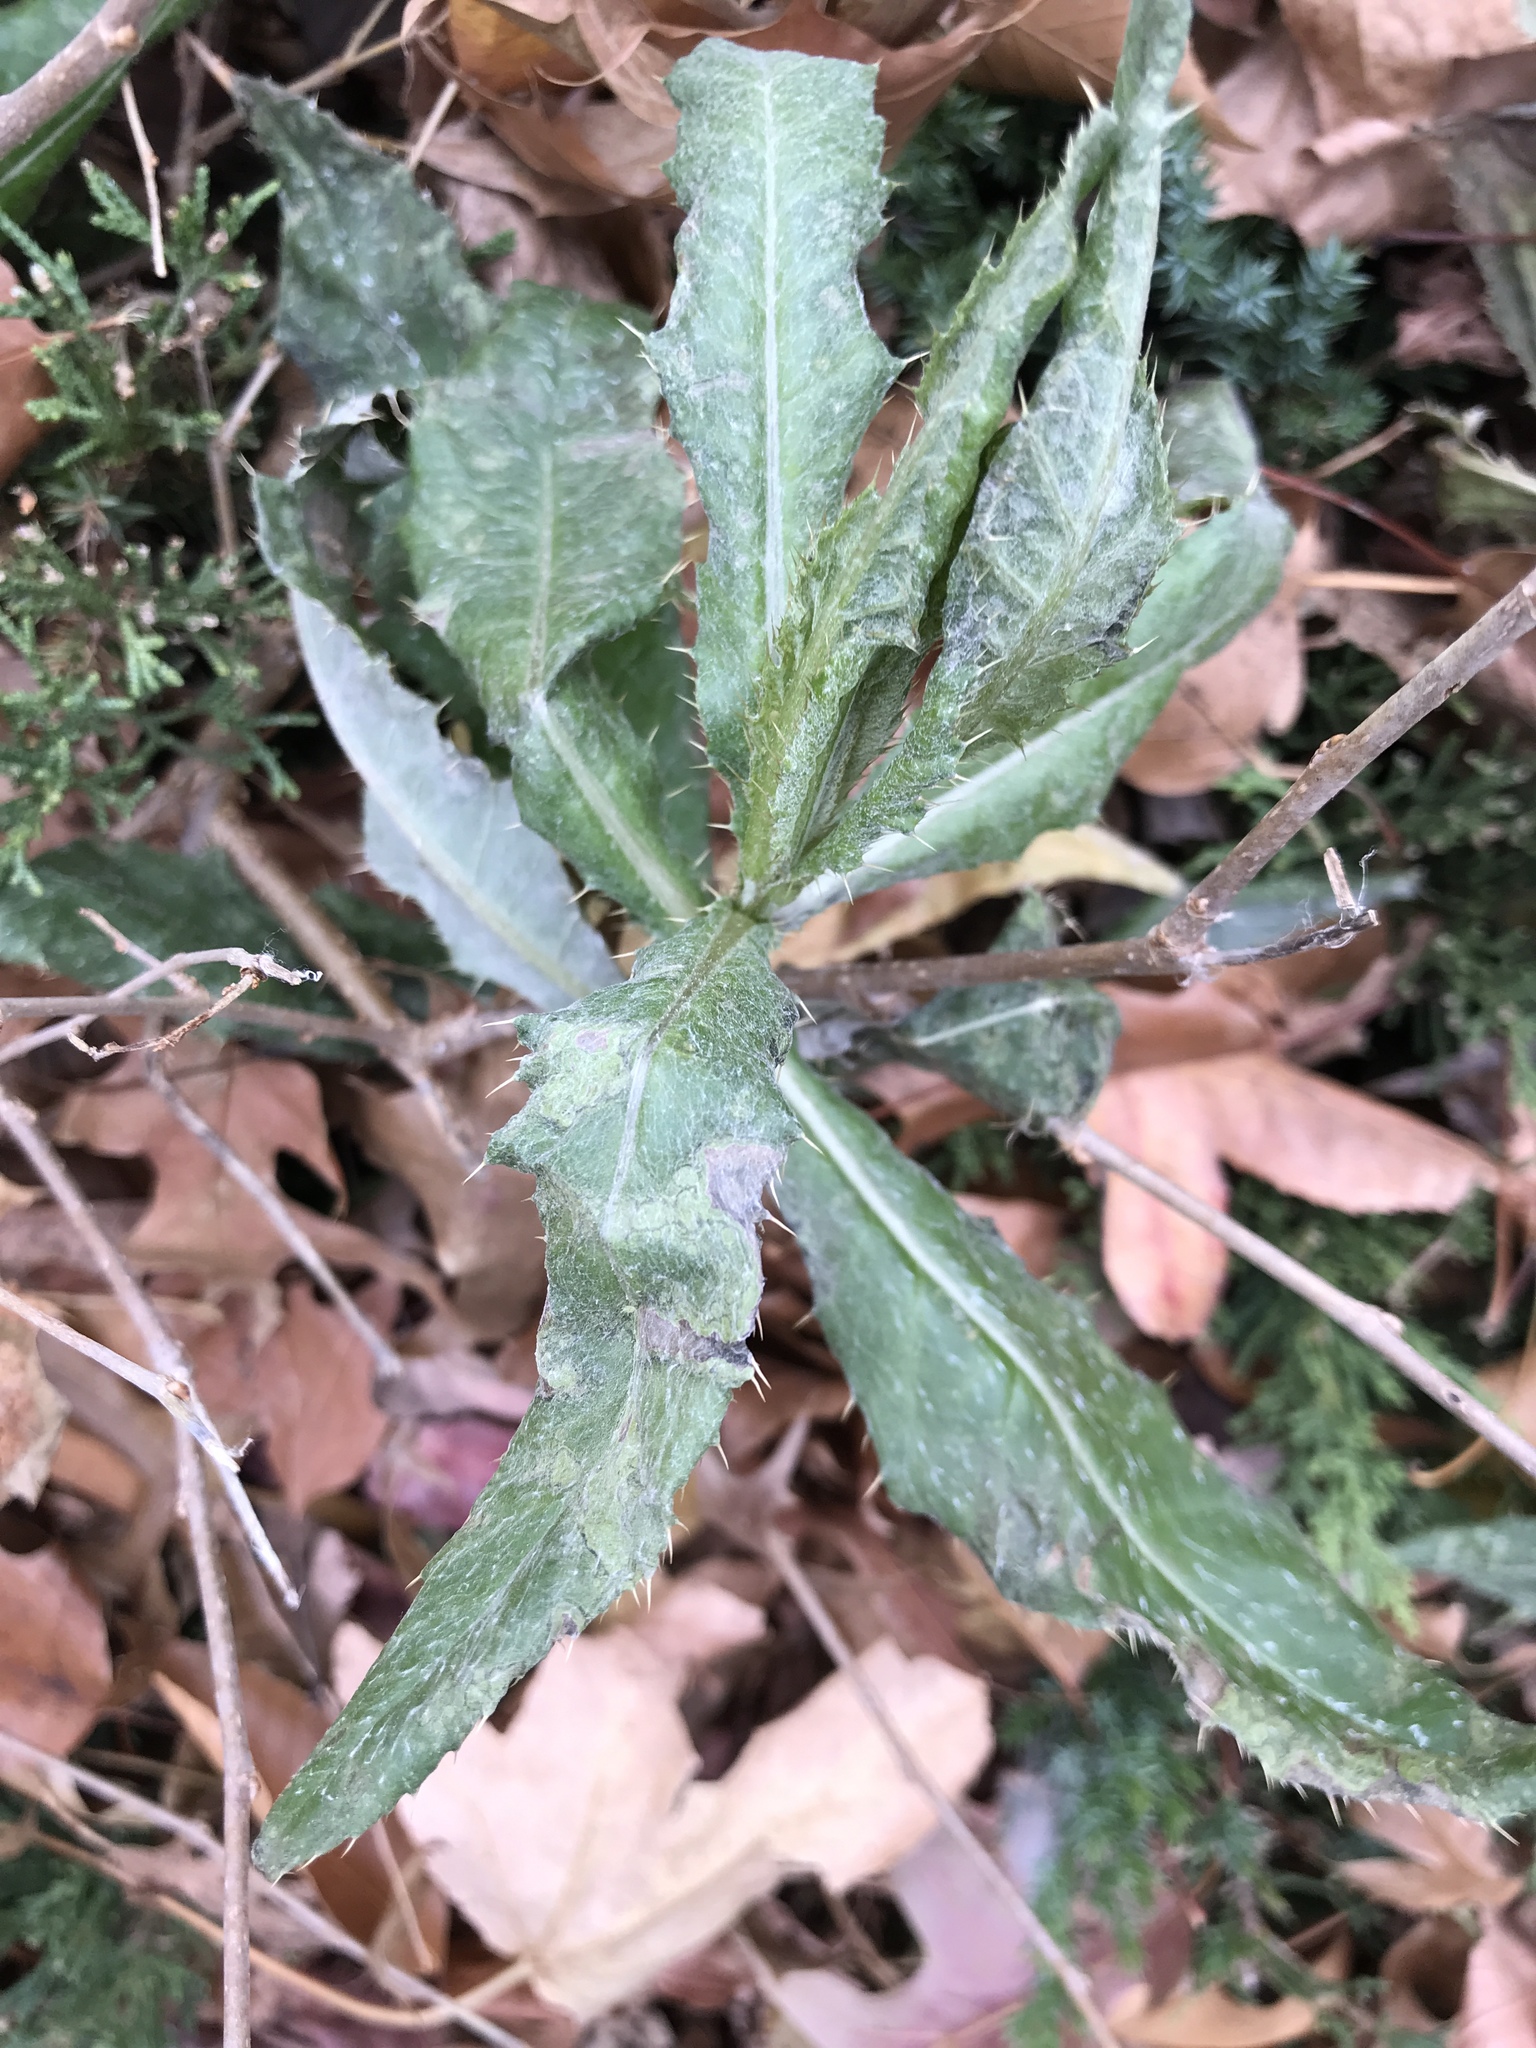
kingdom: Plantae
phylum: Tracheophyta
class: Magnoliopsida
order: Asterales
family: Asteraceae
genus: Cirsium
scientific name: Cirsium arvense
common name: Creeping thistle
